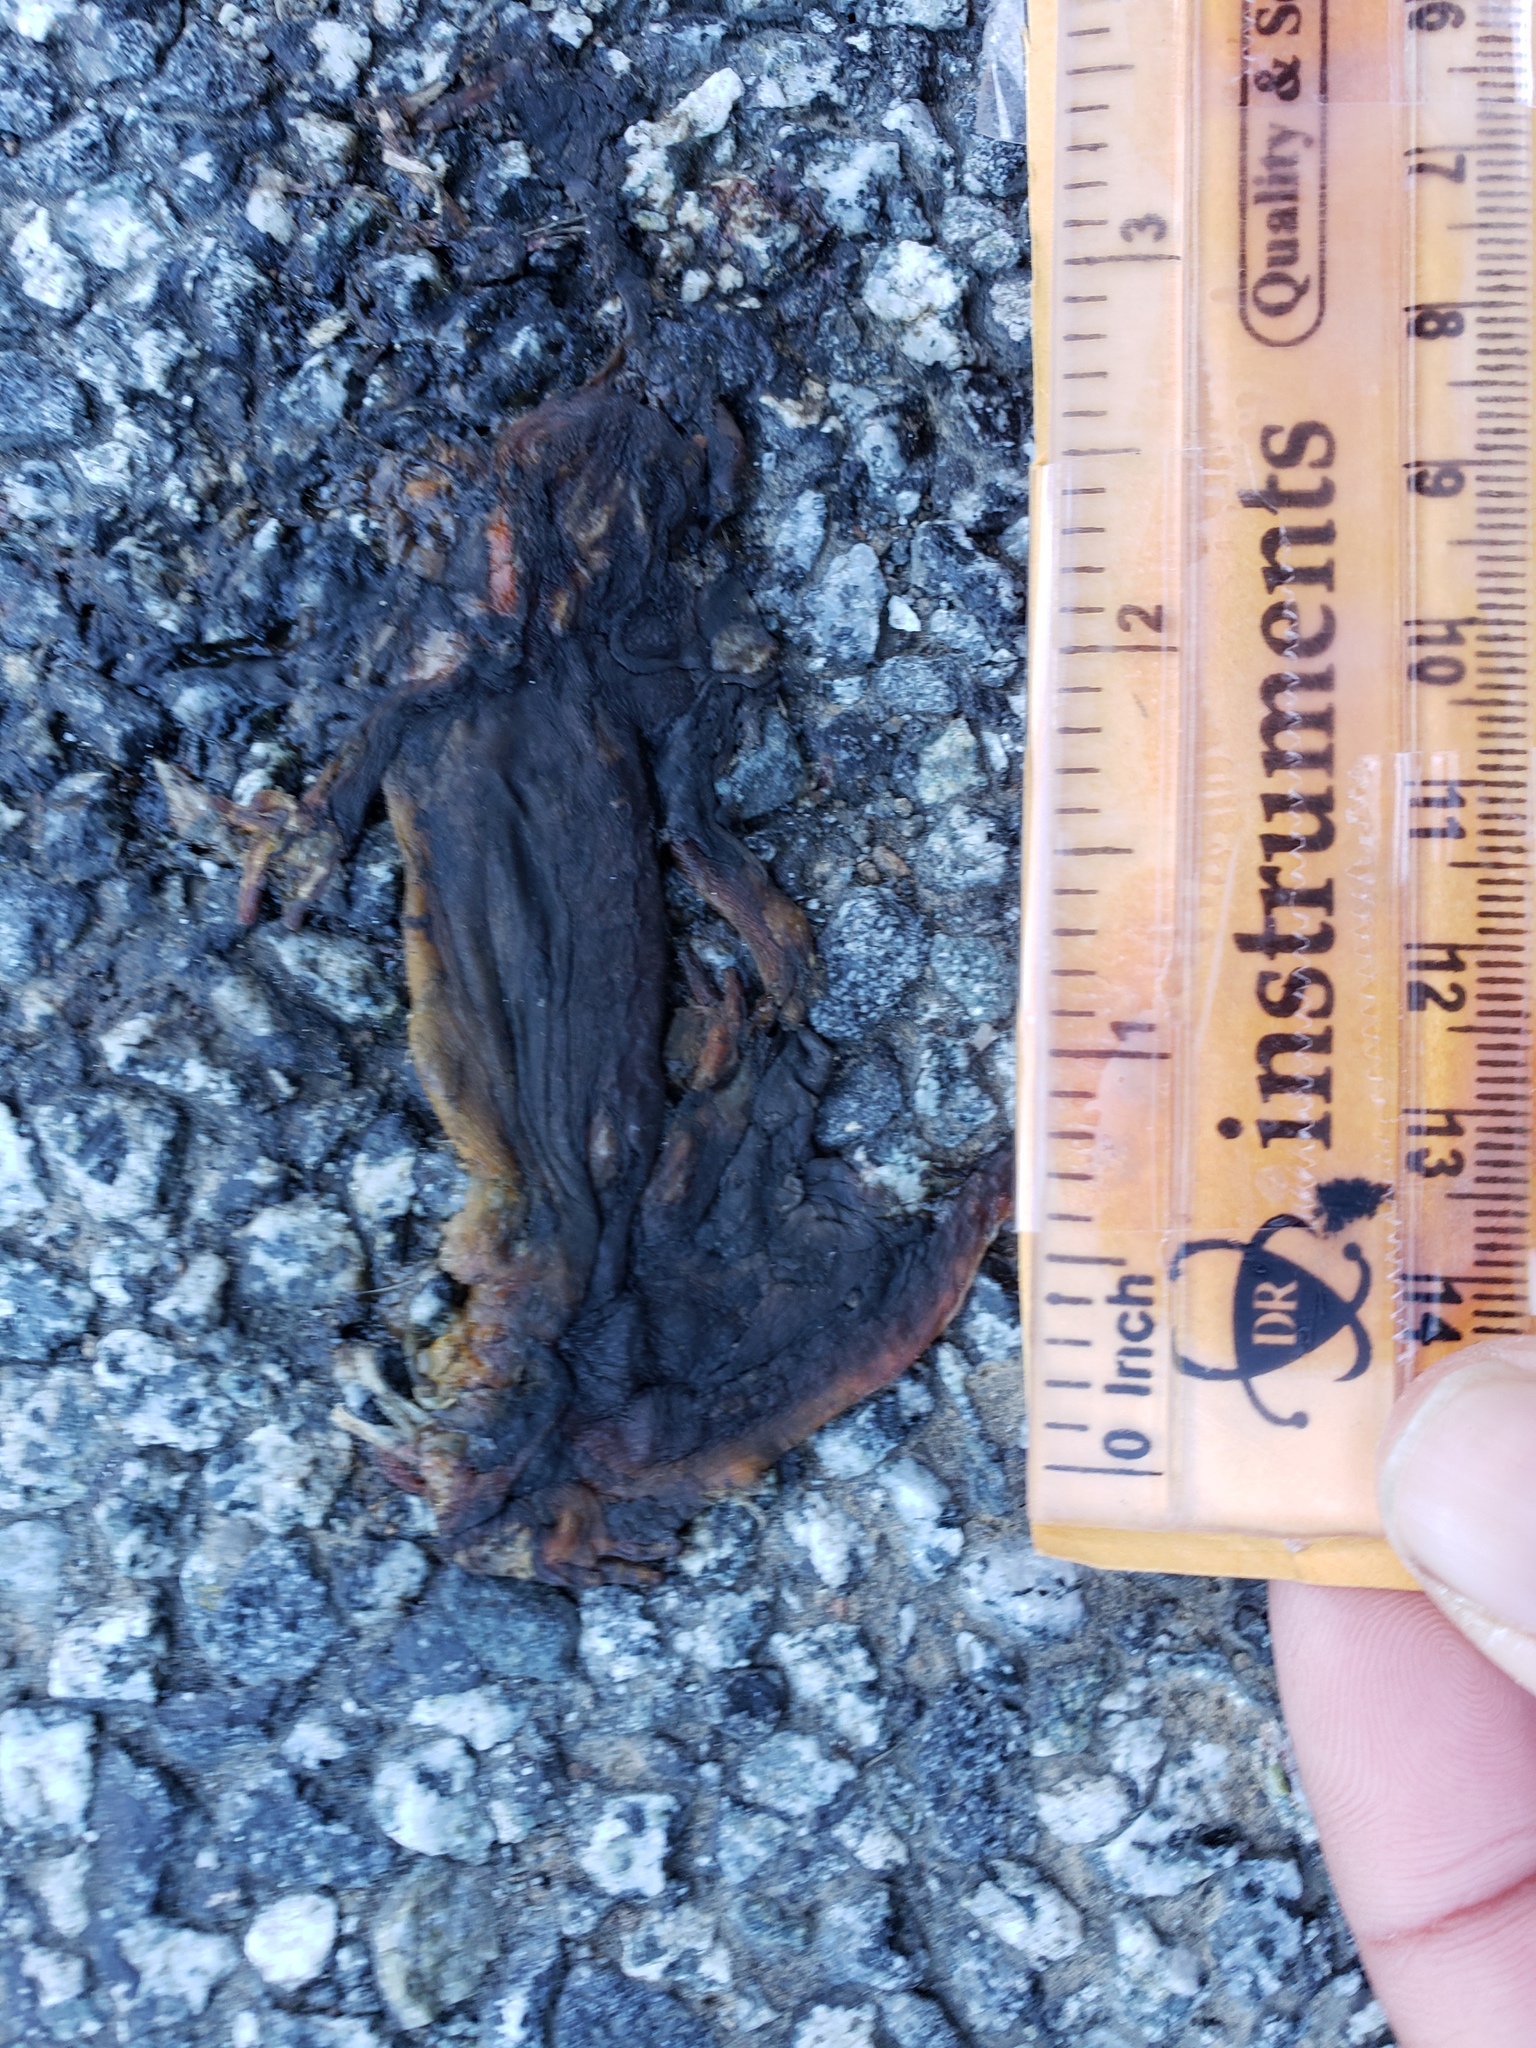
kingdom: Animalia
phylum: Chordata
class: Amphibia
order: Caudata
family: Salamandridae
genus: Taricha
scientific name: Taricha
